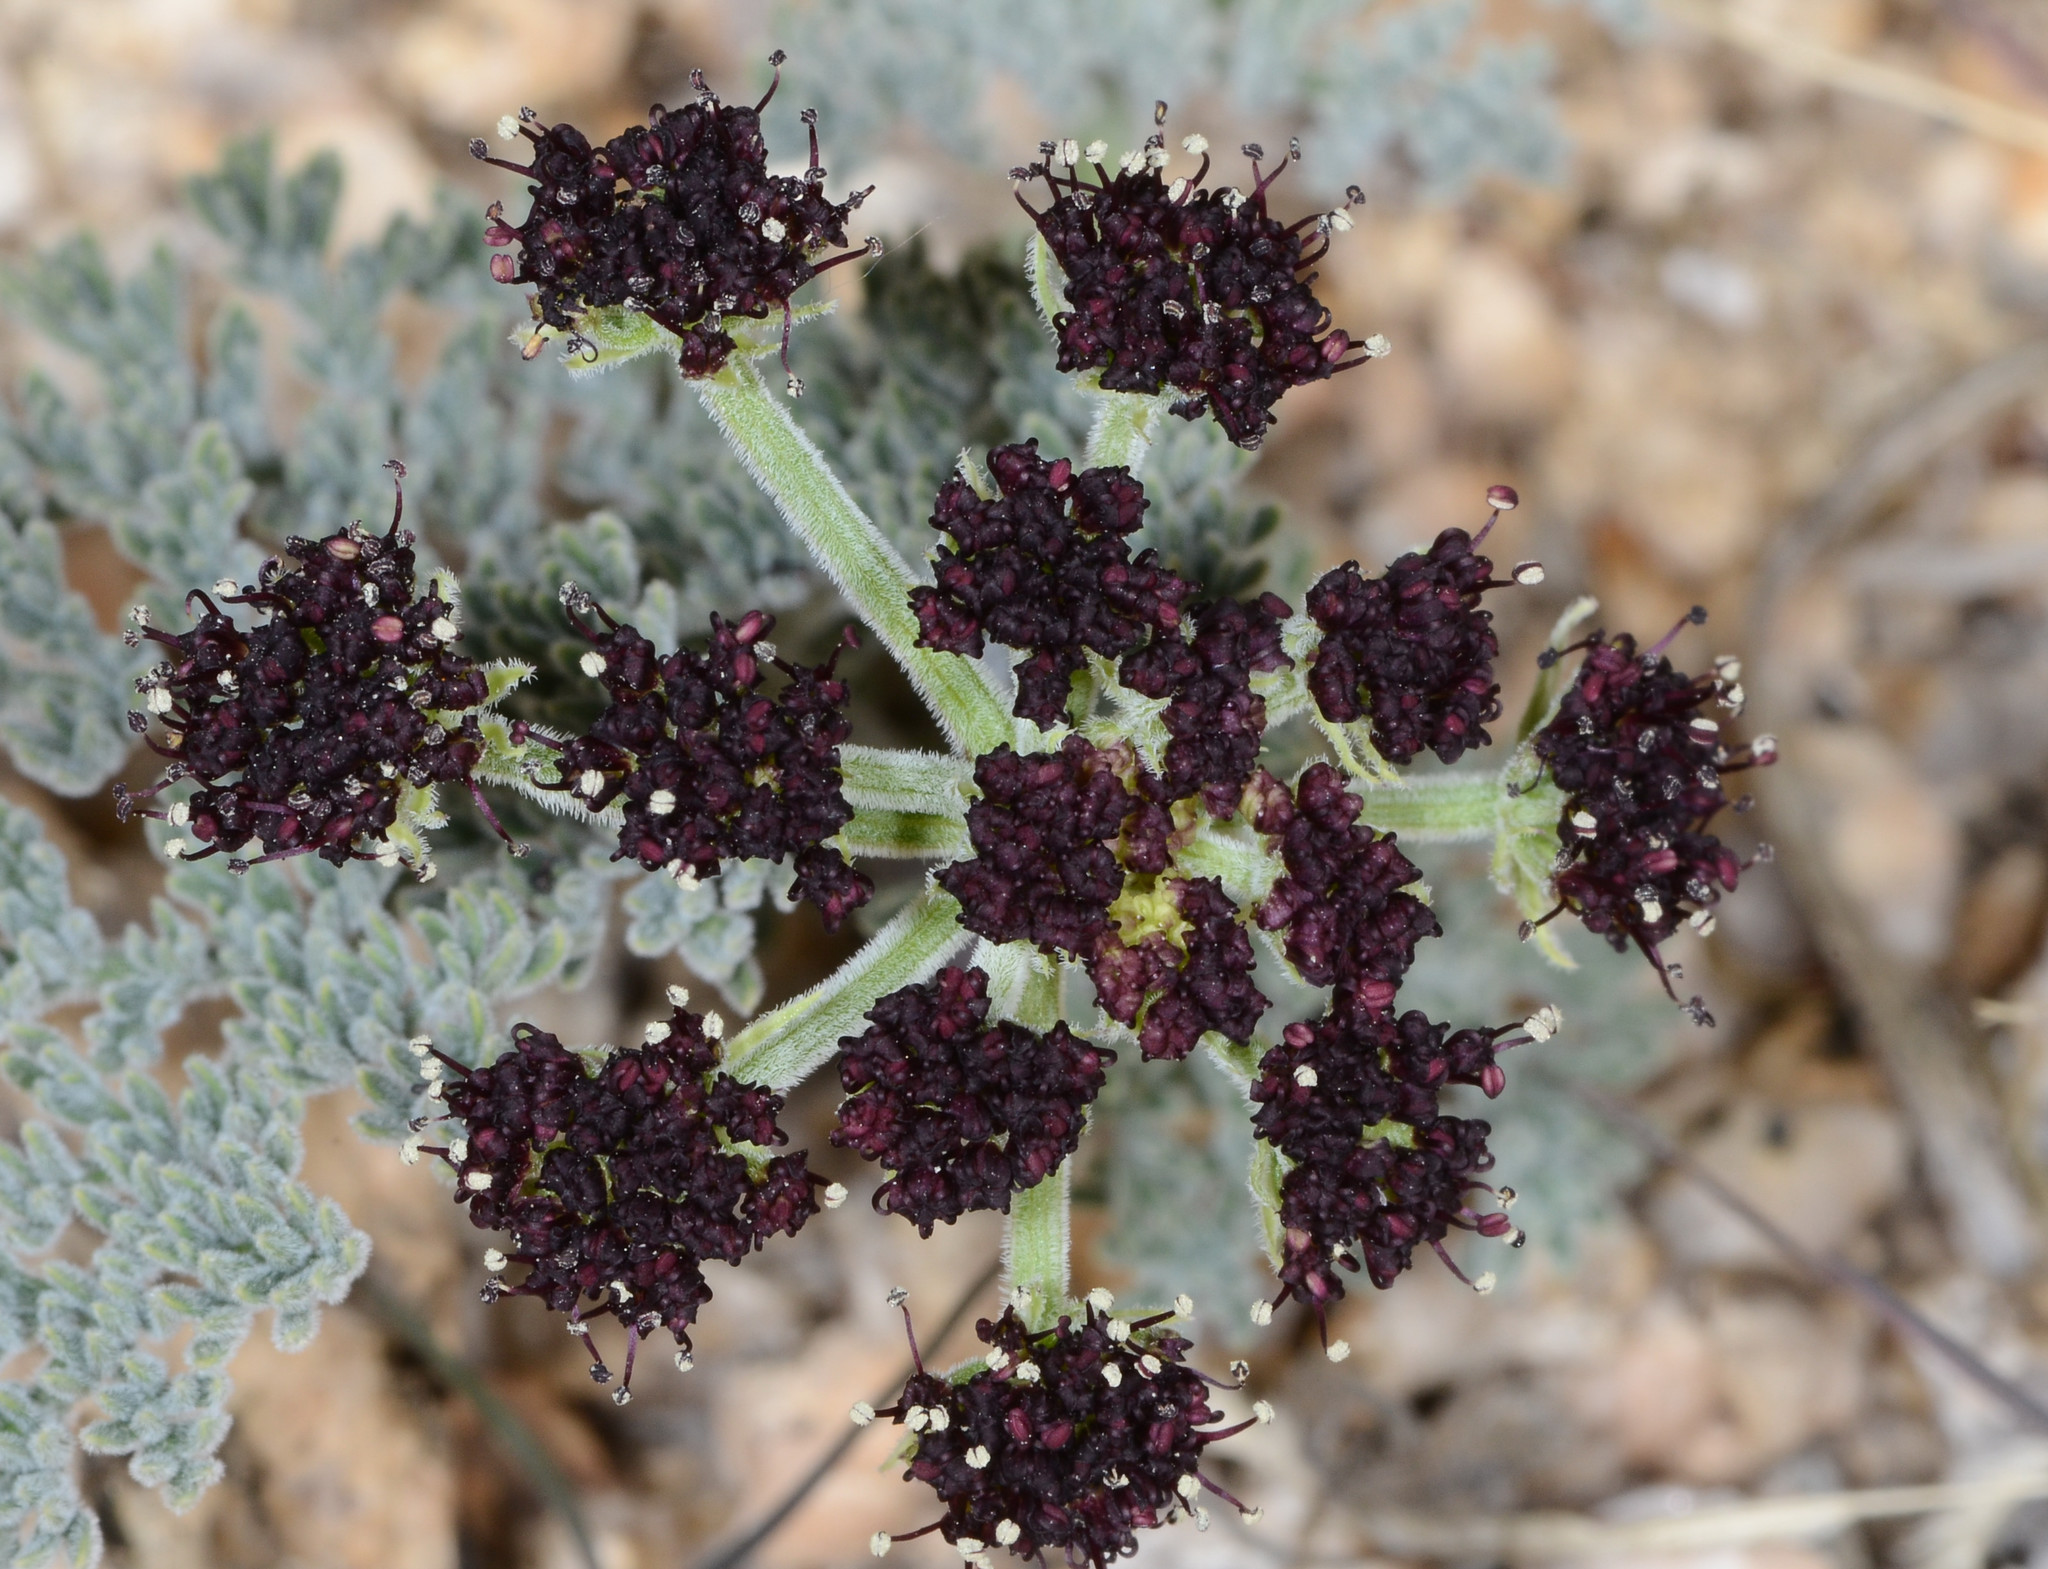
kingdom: Plantae
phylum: Tracheophyta
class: Magnoliopsida
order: Apiales
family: Apiaceae
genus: Lomatium
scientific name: Lomatium mohavense
